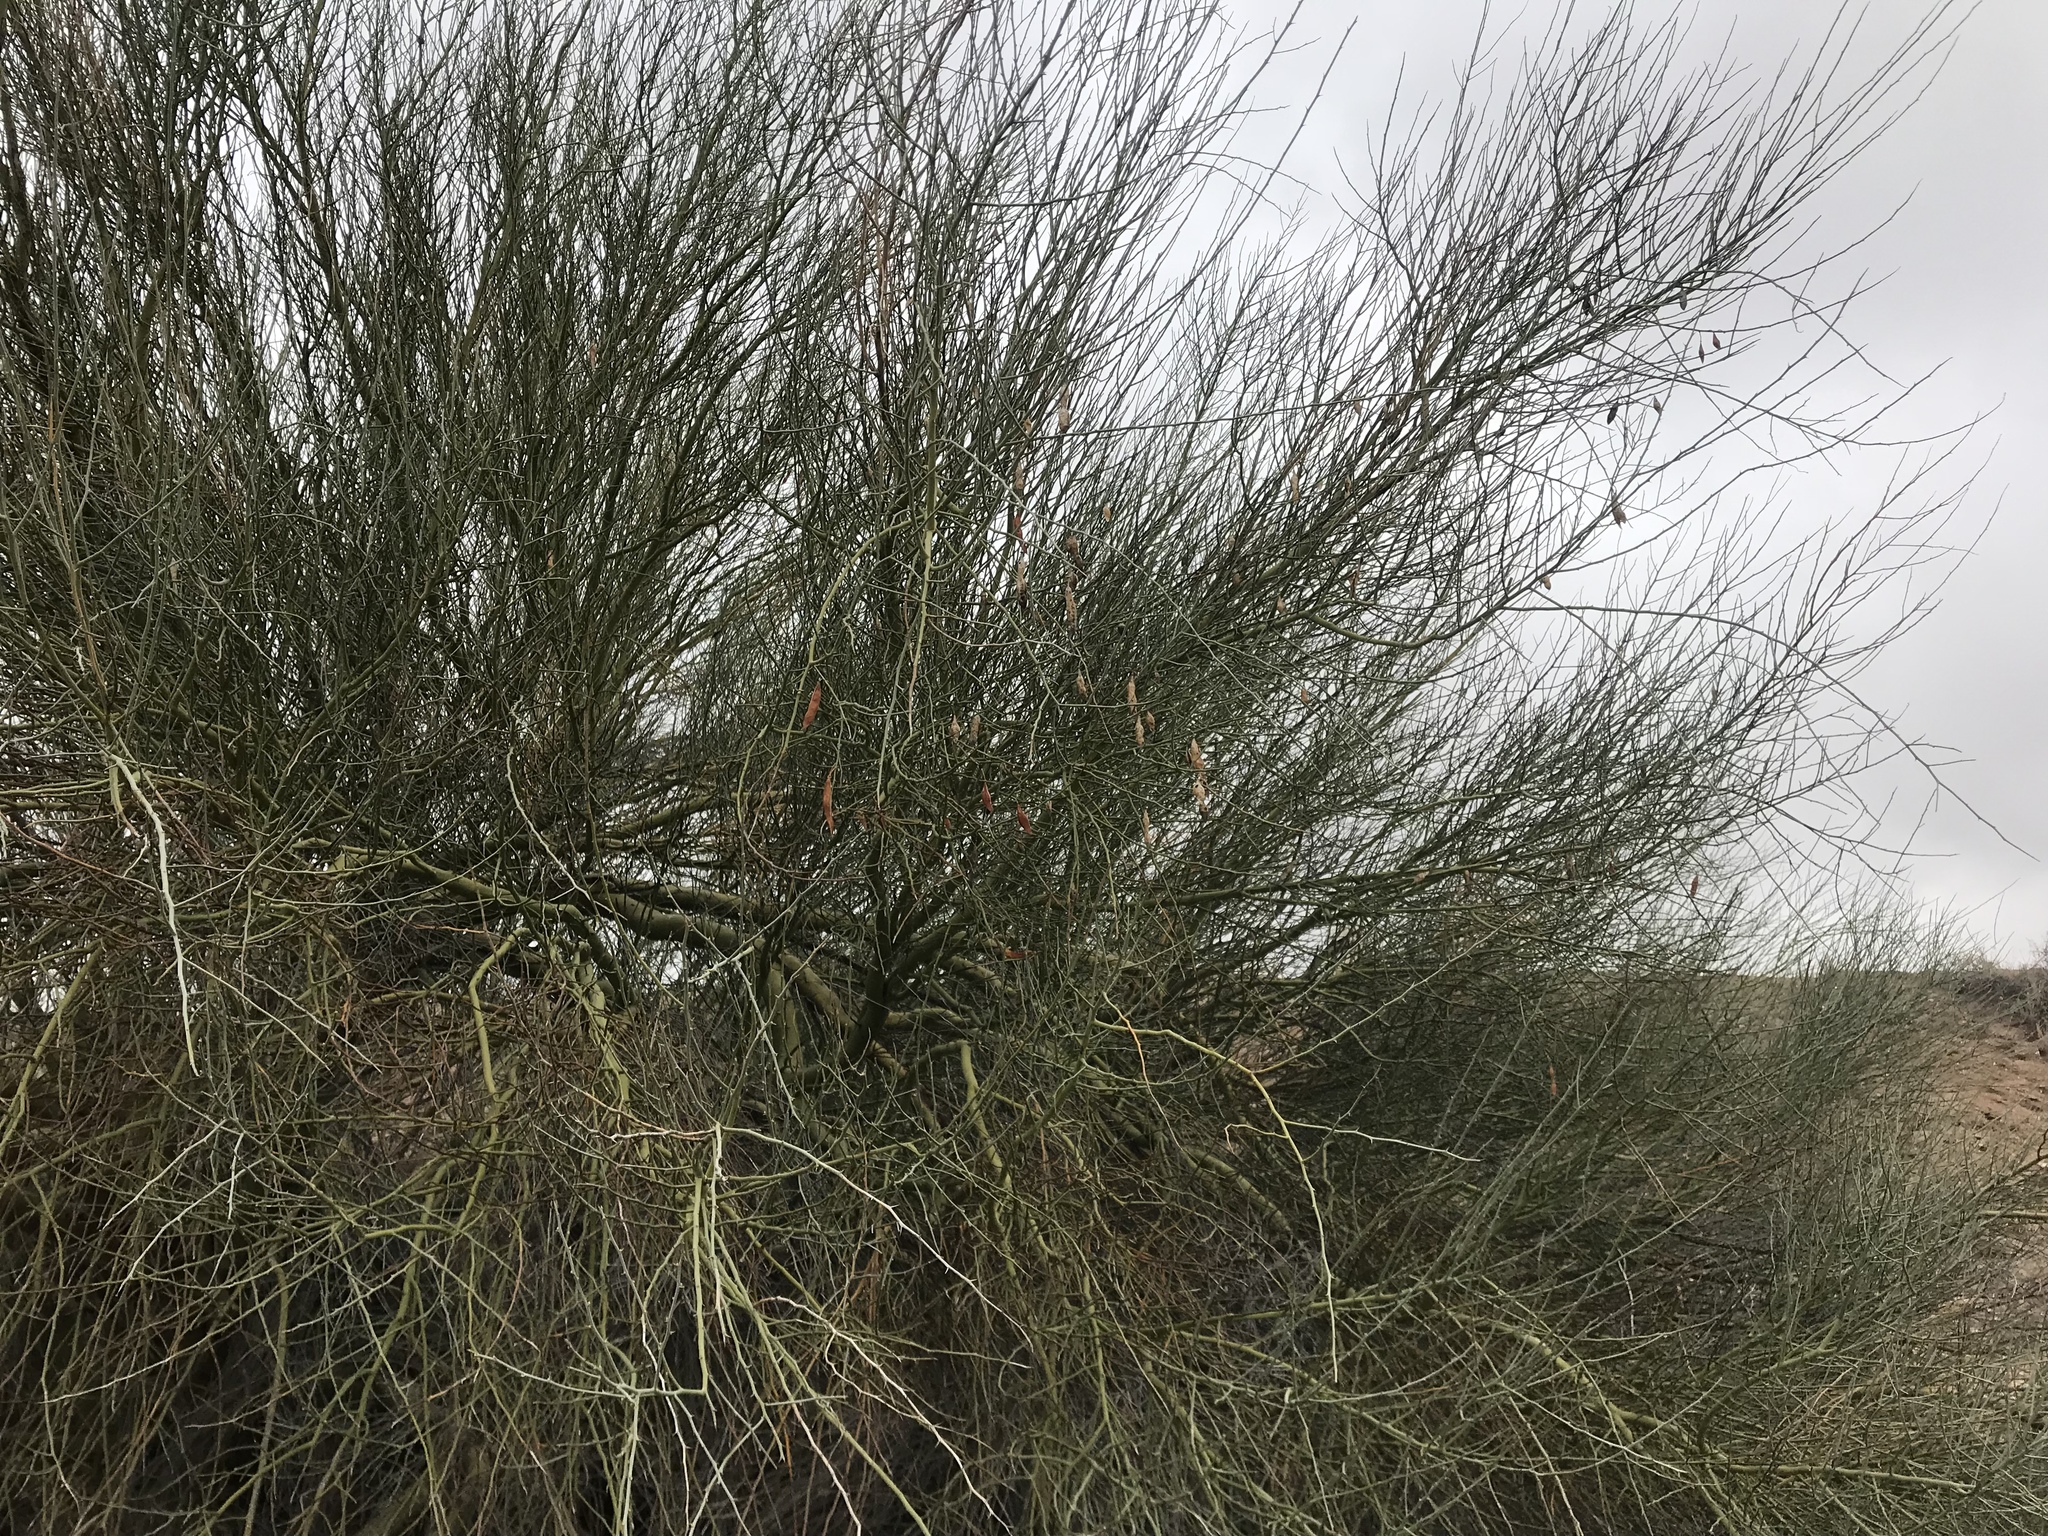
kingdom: Plantae
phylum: Tracheophyta
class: Magnoliopsida
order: Fabales
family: Fabaceae
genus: Parkinsonia
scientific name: Parkinsonia florida
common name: Blue paloverde
